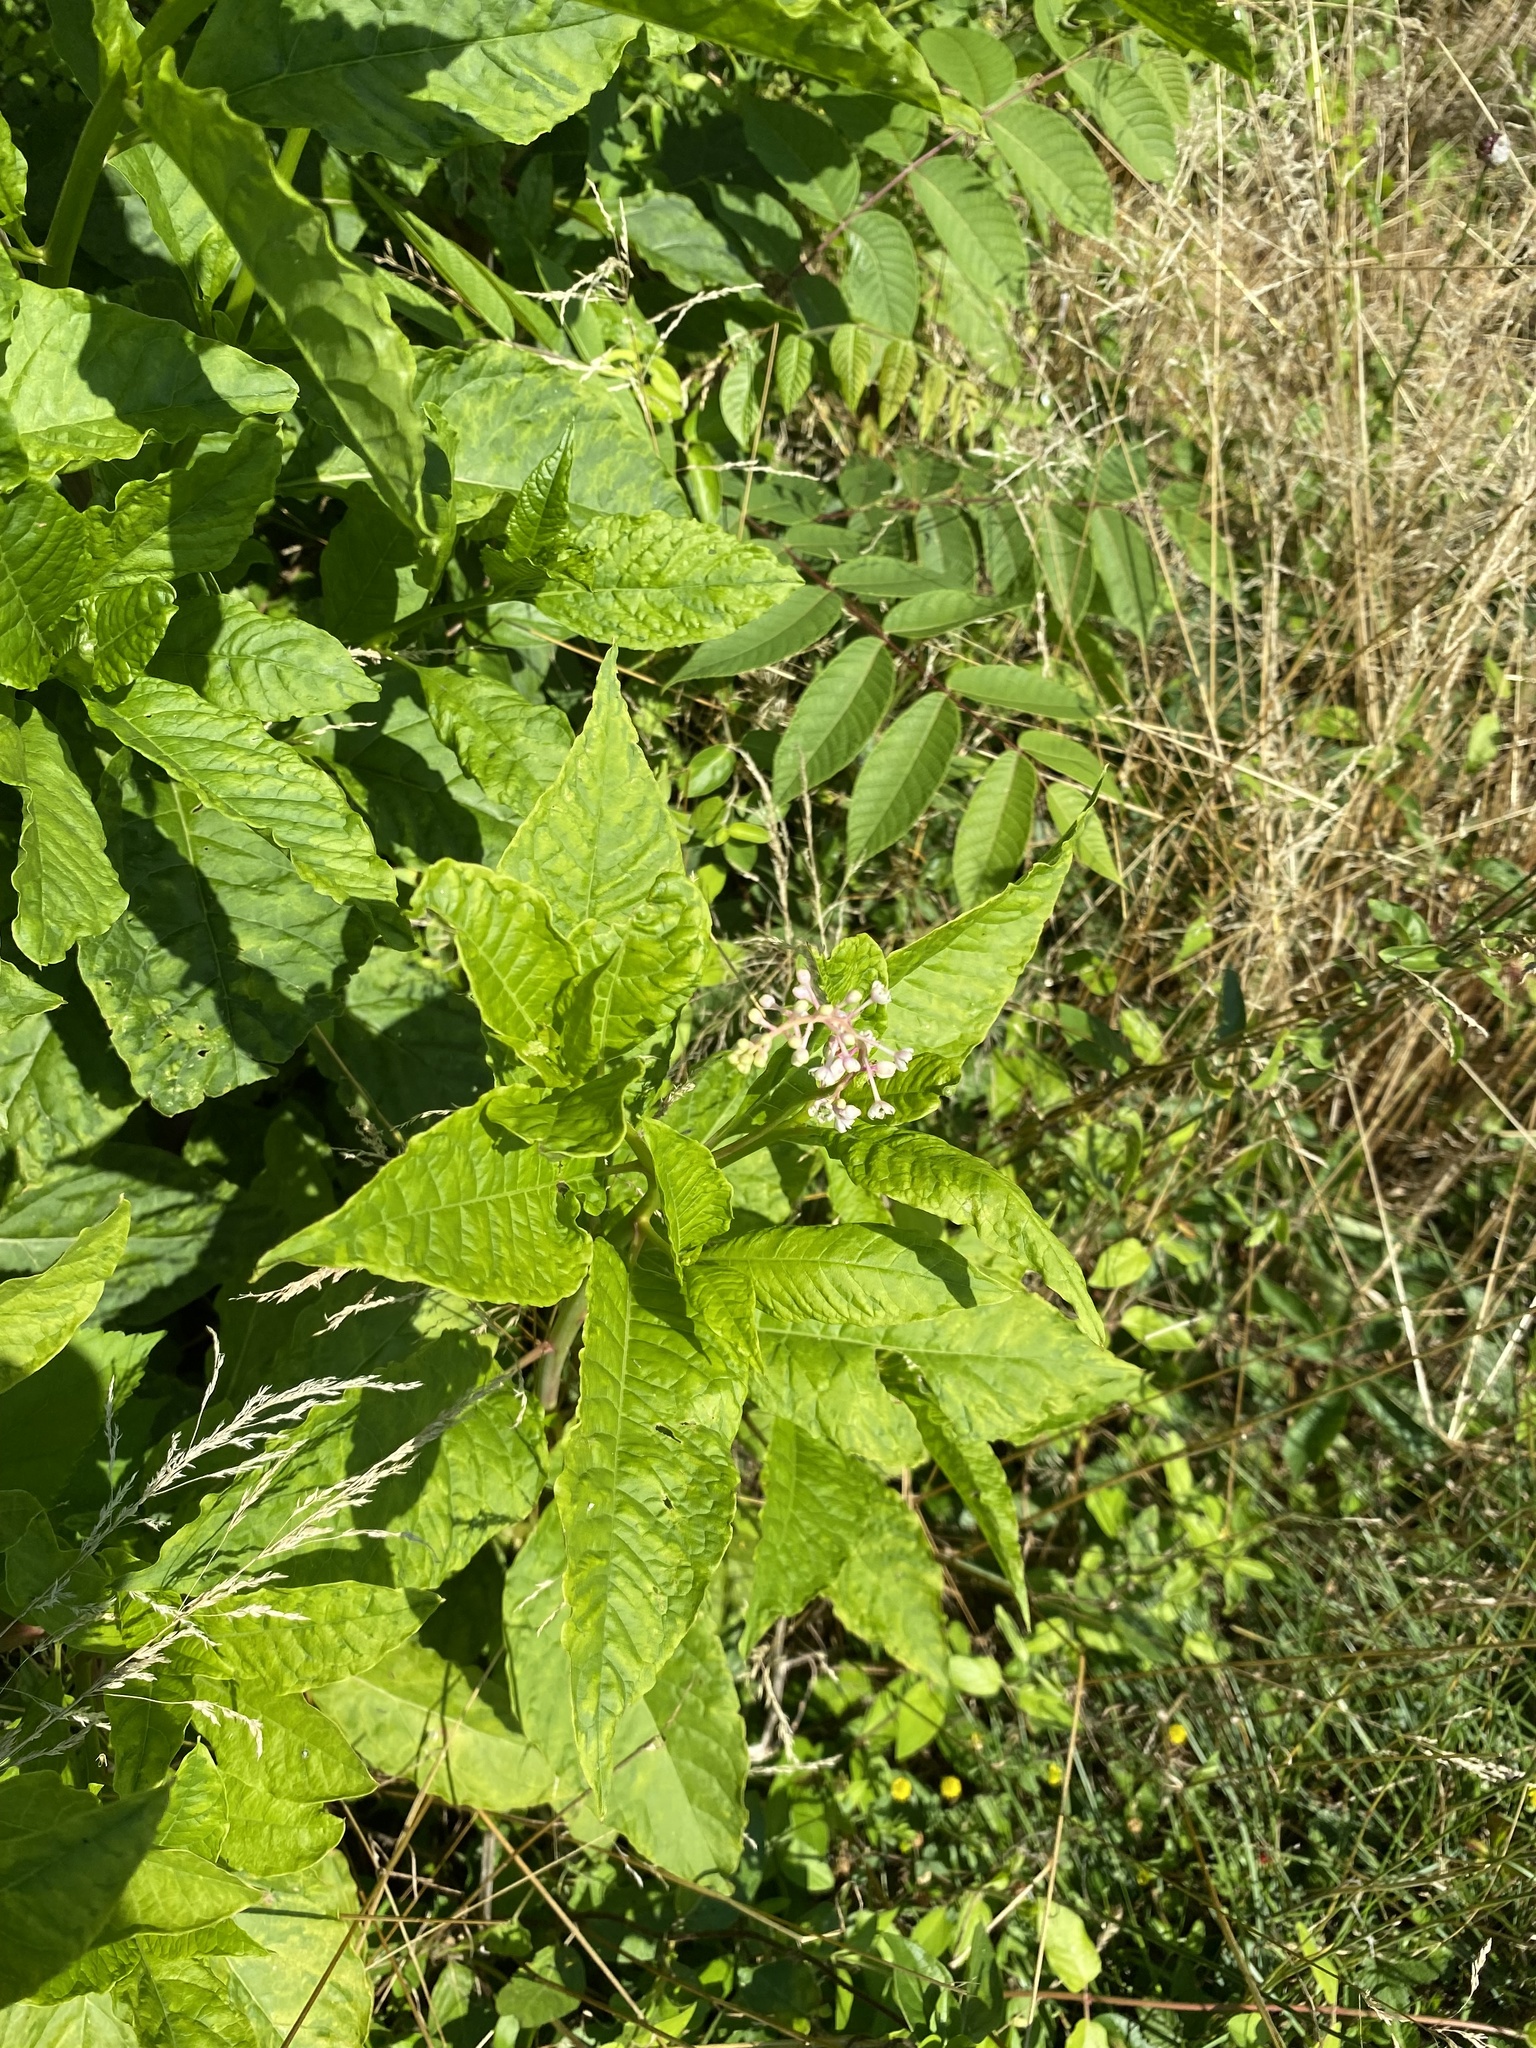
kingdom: Plantae
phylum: Tracheophyta
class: Magnoliopsida
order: Caryophyllales
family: Phytolaccaceae
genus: Phytolacca
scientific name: Phytolacca americana
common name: American pokeweed
